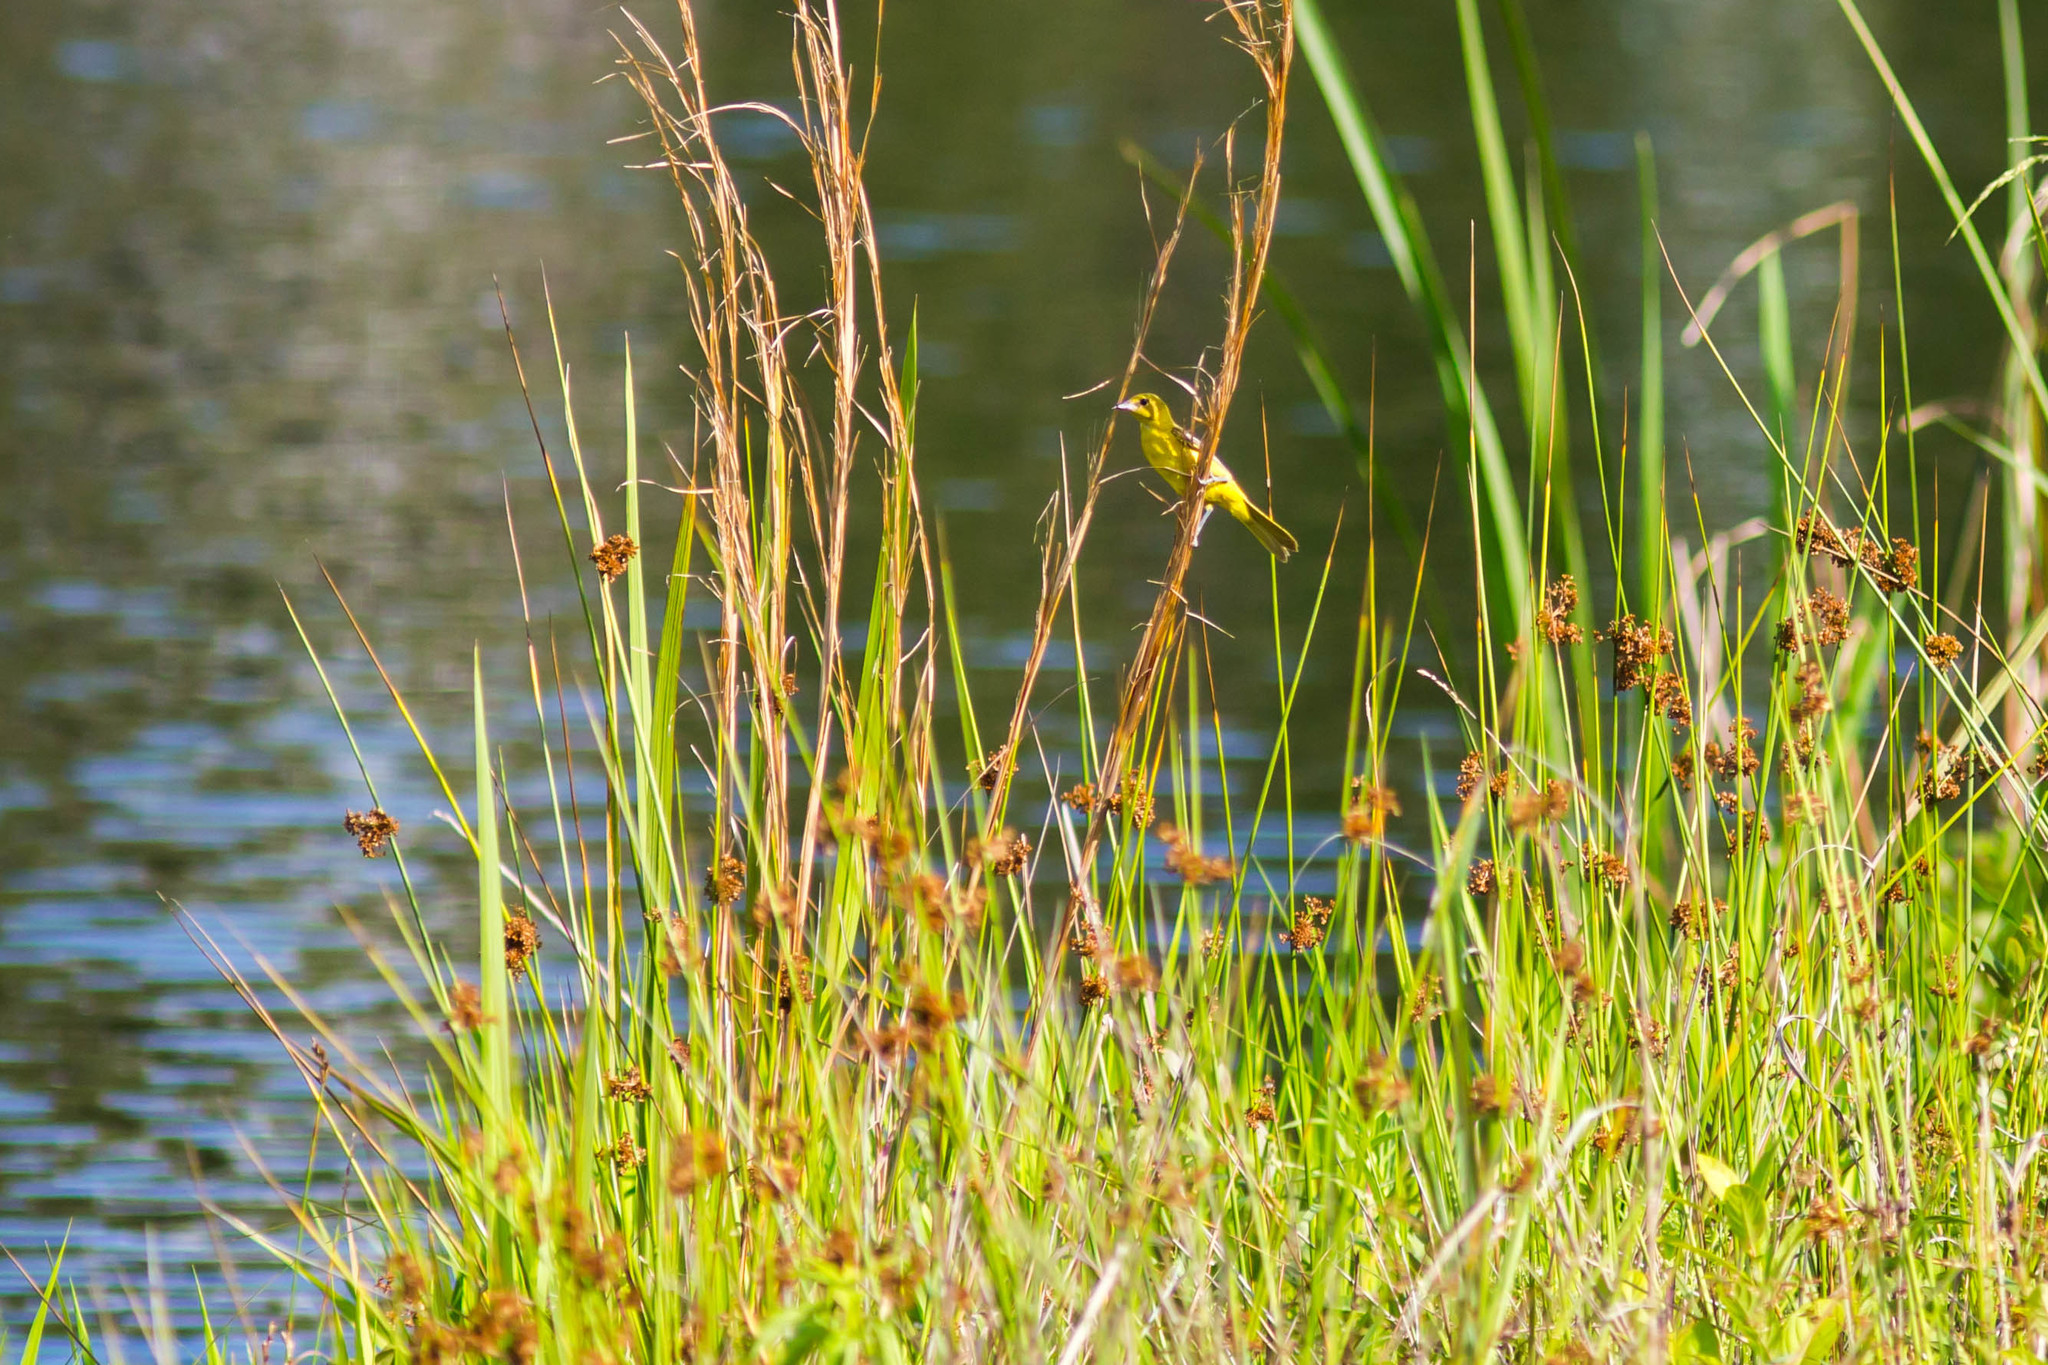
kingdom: Animalia
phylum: Chordata
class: Aves
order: Passeriformes
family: Icteridae
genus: Icterus
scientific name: Icterus spurius
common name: Orchard oriole
